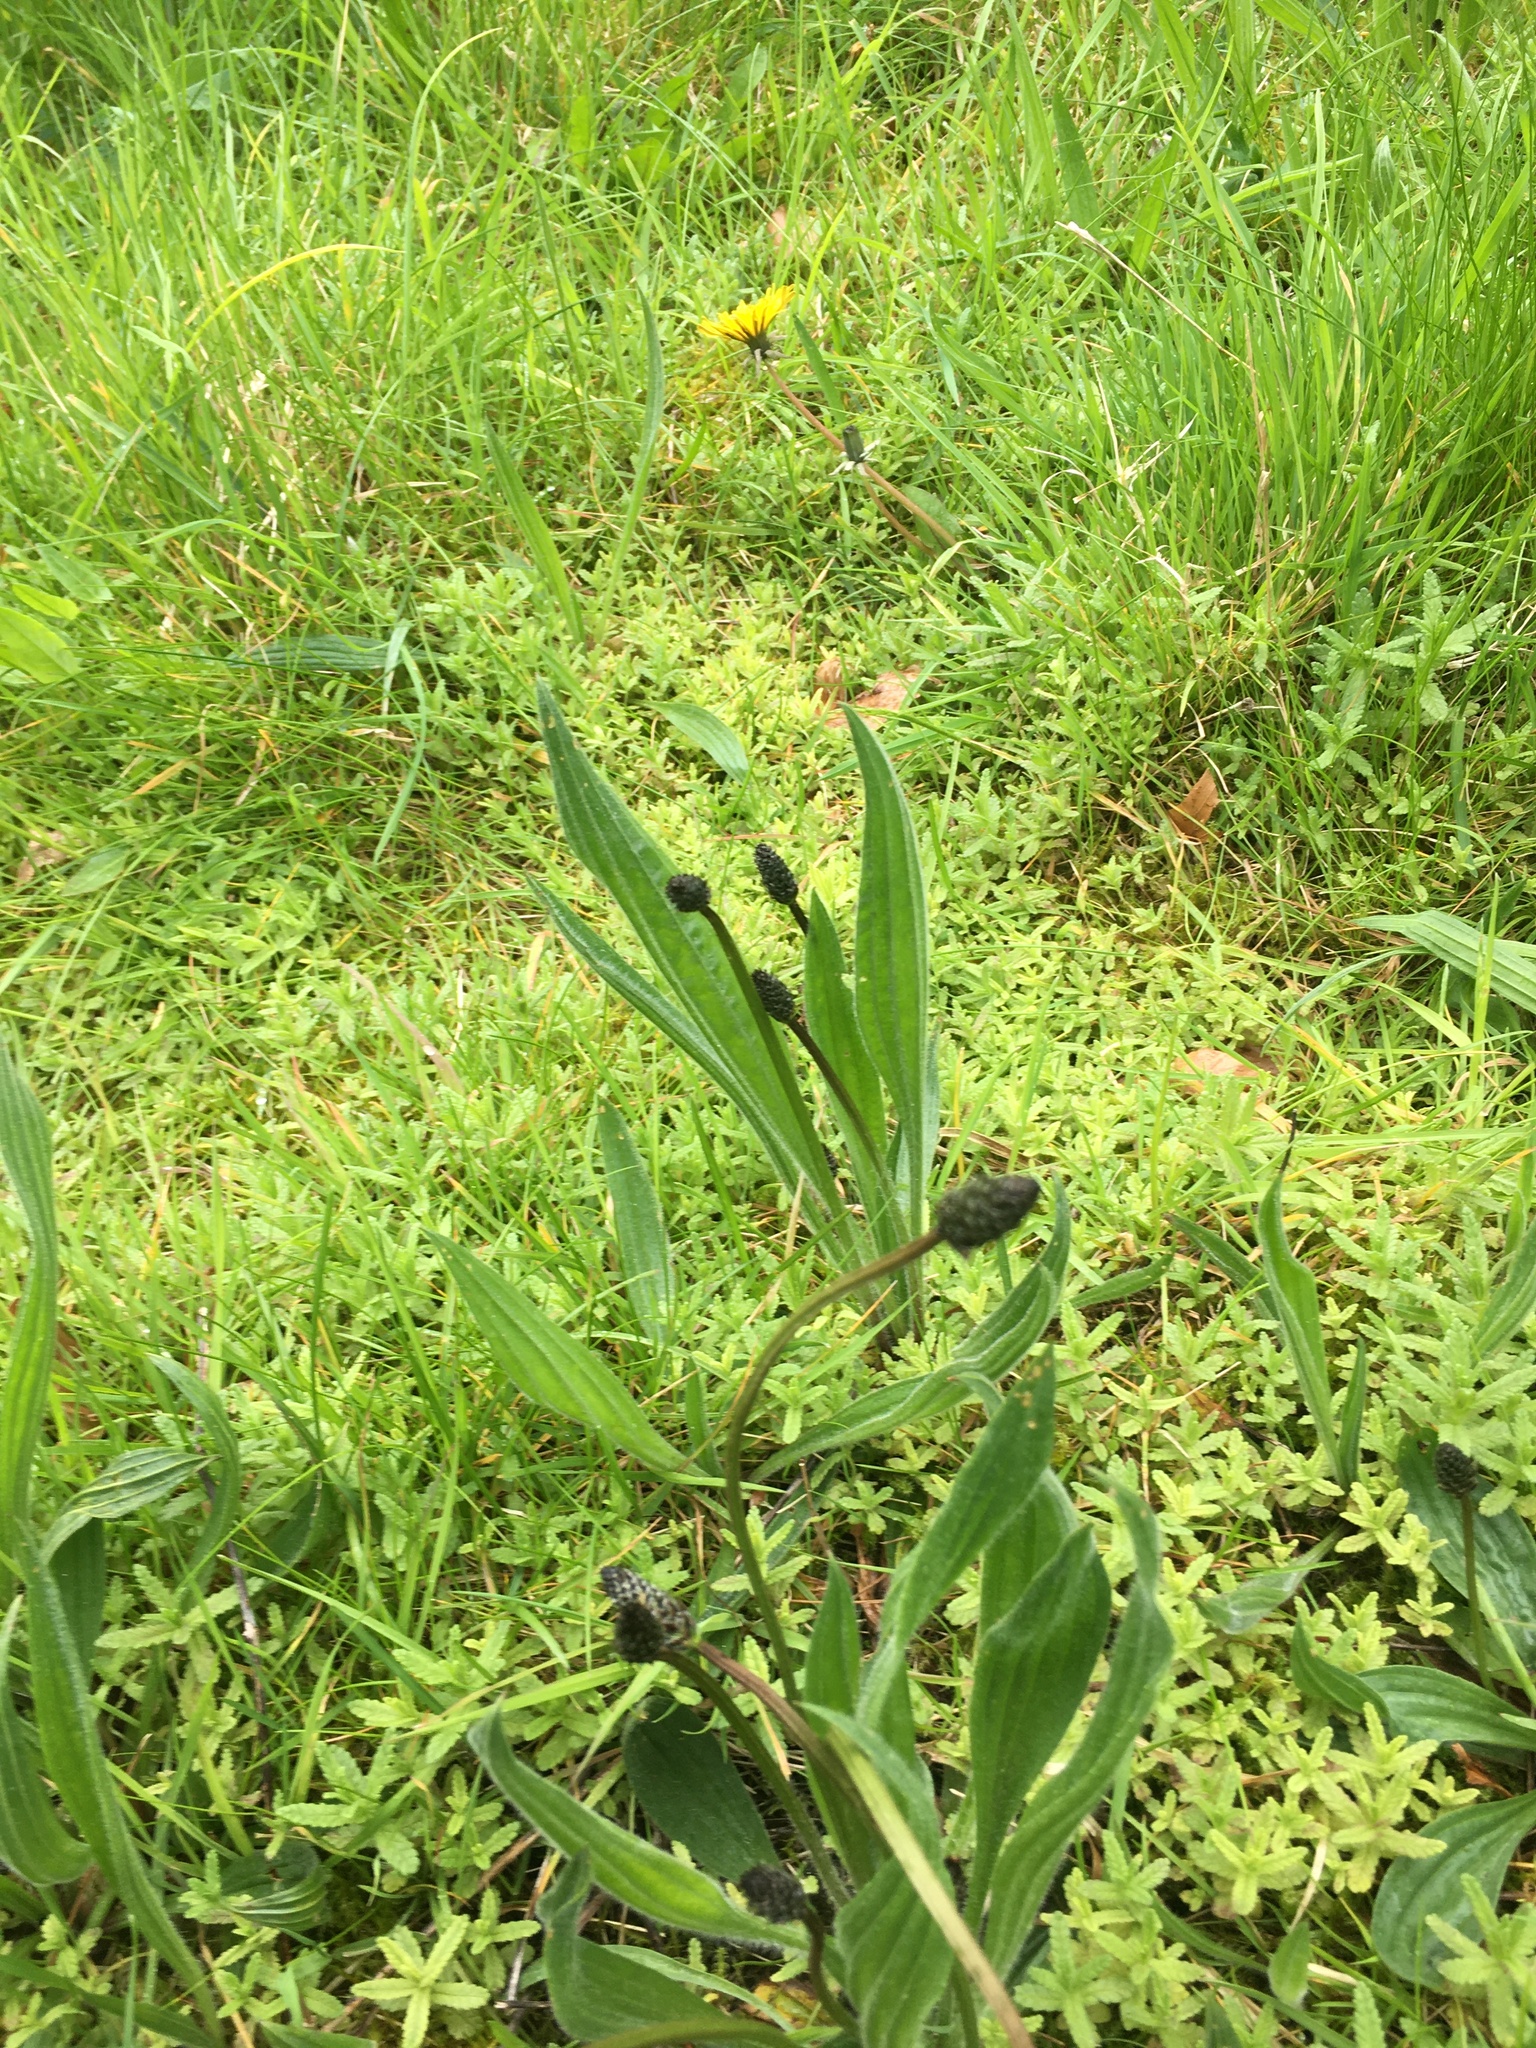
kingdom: Plantae
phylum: Tracheophyta
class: Magnoliopsida
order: Lamiales
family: Plantaginaceae
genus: Plantago
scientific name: Plantago lanceolata
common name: Ribwort plantain
